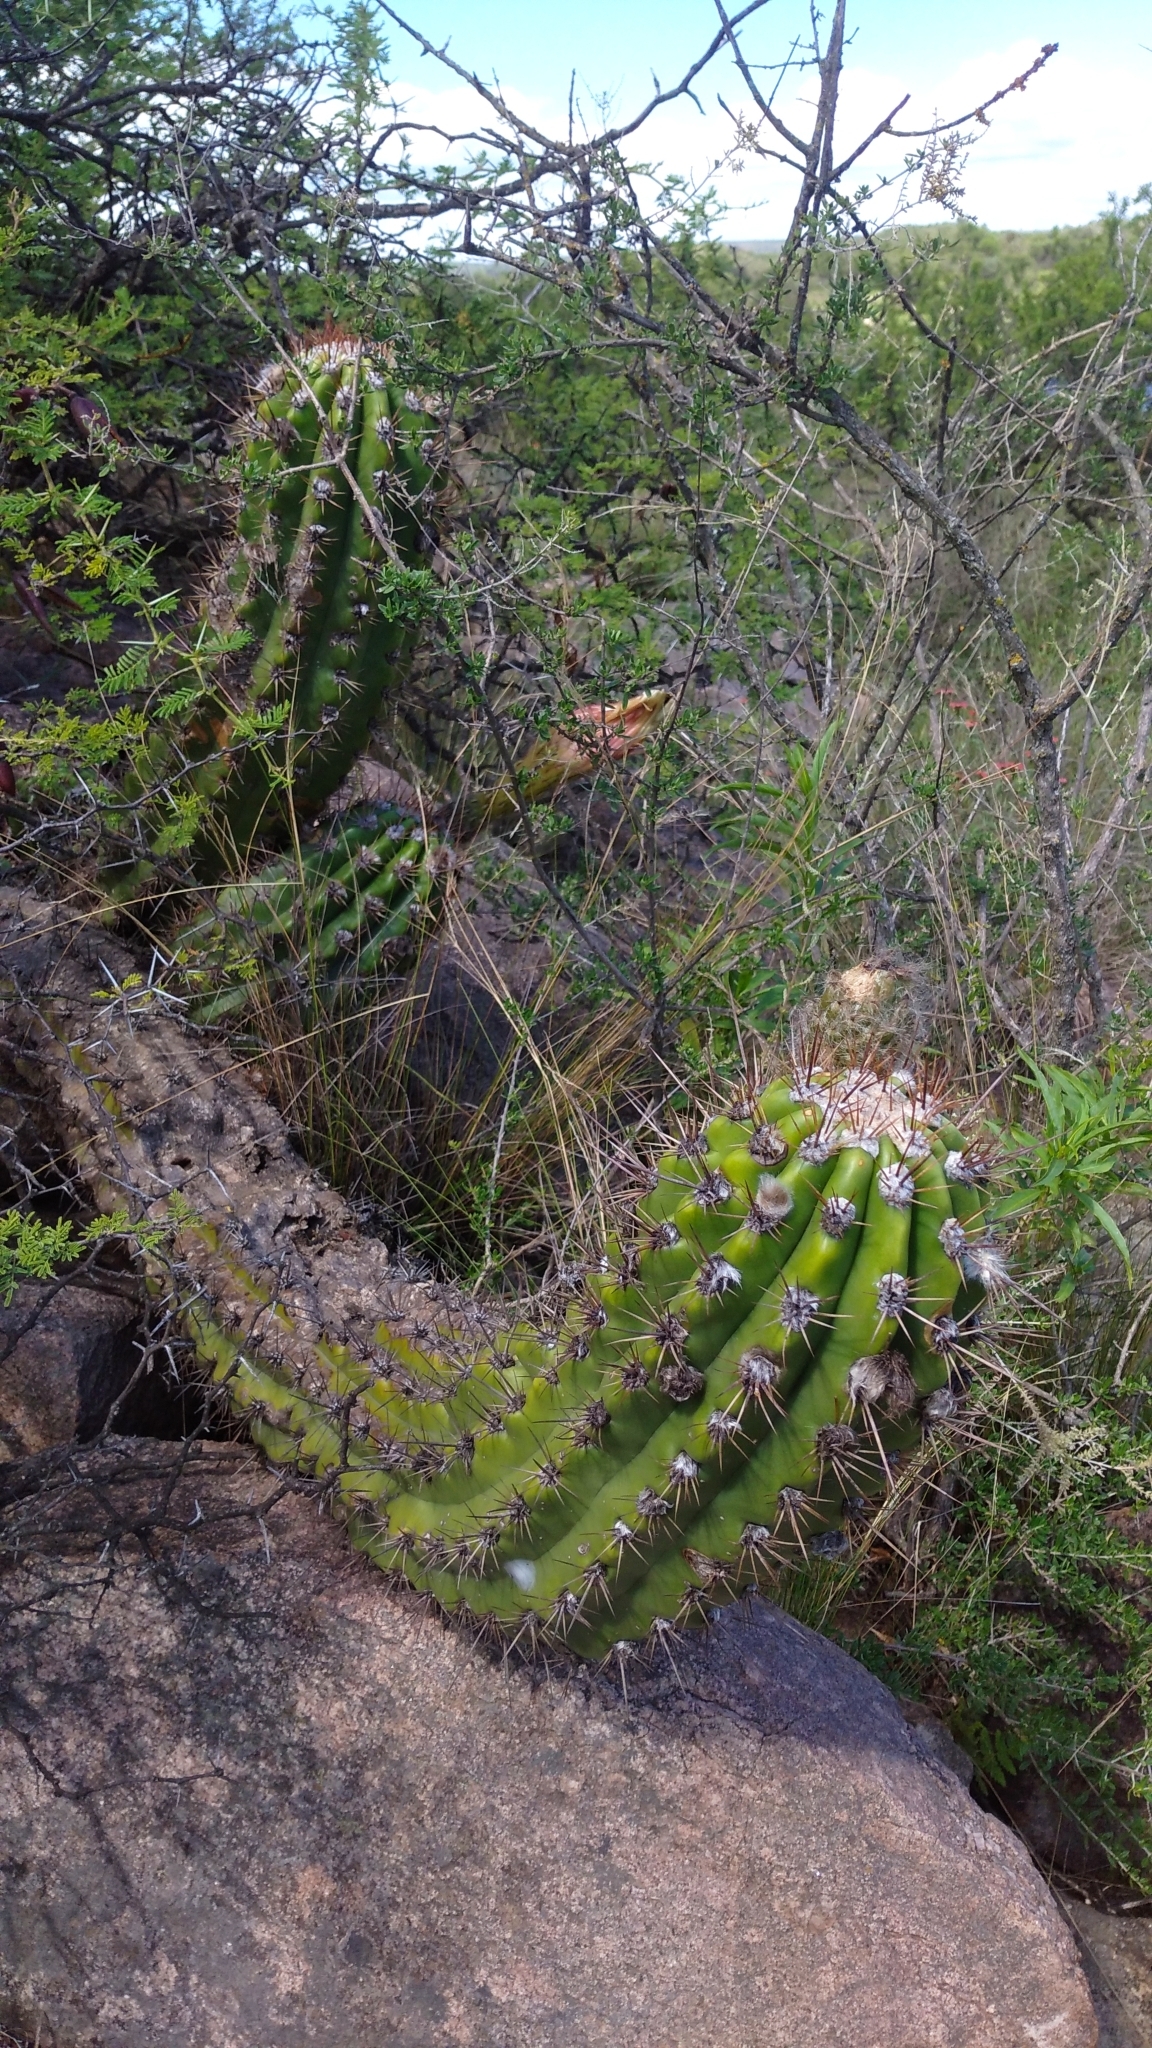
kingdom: Plantae
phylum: Tracheophyta
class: Magnoliopsida
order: Caryophyllales
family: Cactaceae
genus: Soehrensia
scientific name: Soehrensia candicans
